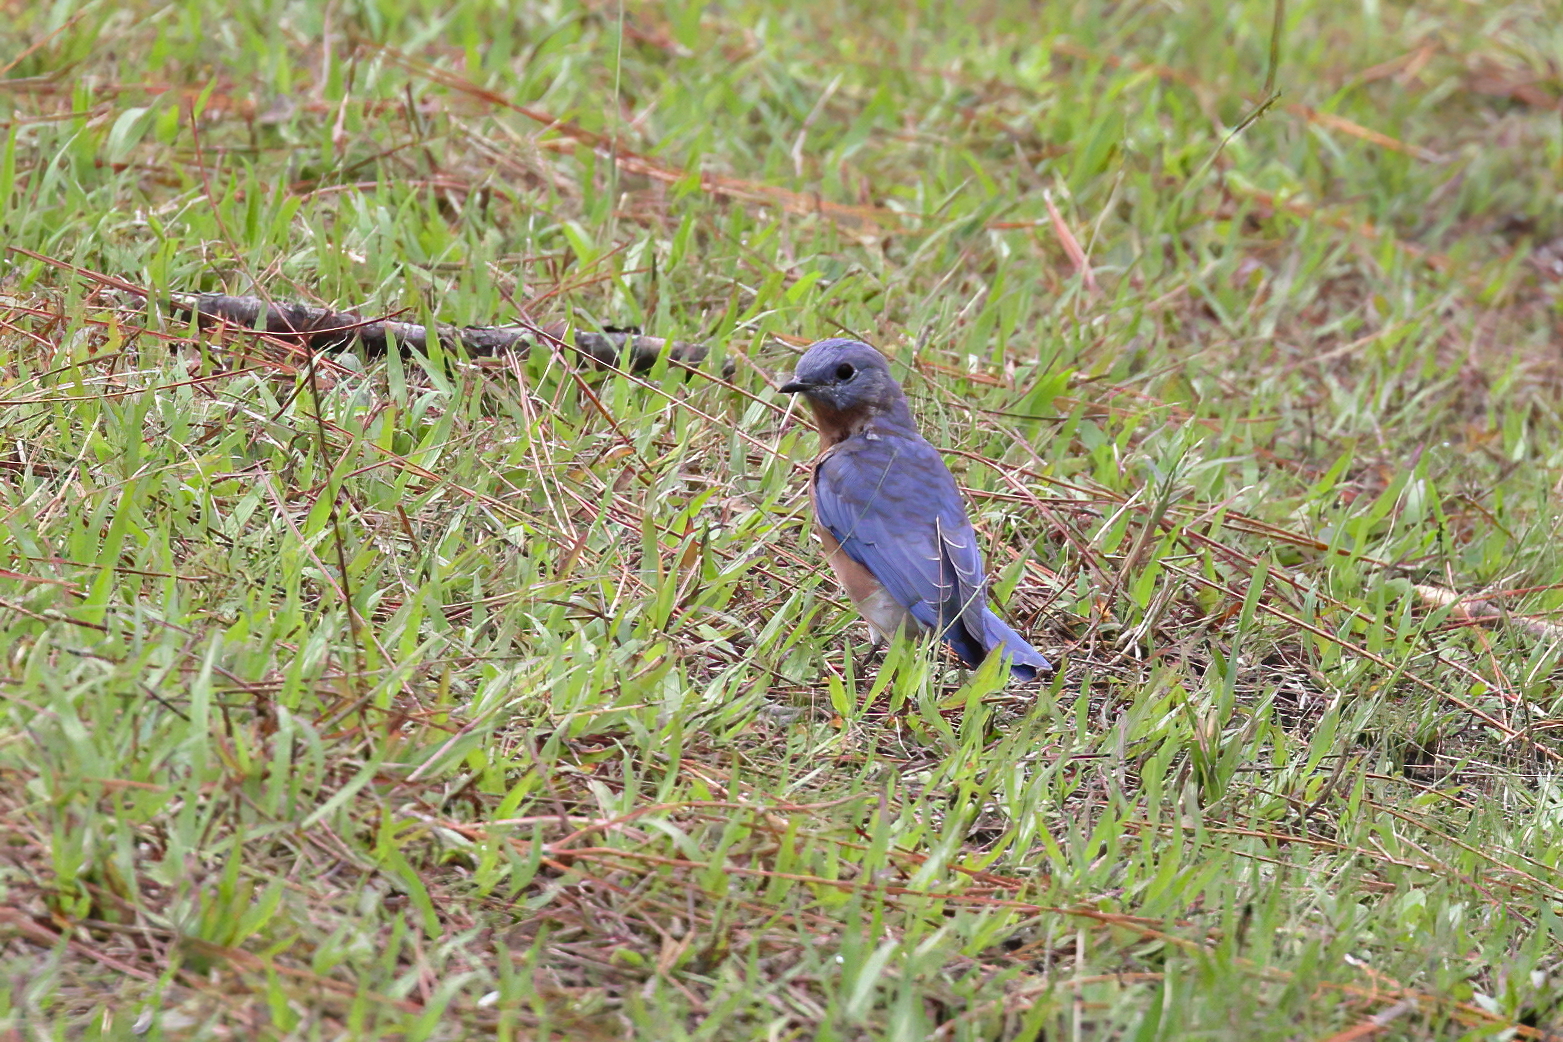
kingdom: Animalia
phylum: Chordata
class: Aves
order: Passeriformes
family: Turdidae
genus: Sialia
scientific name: Sialia sialis
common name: Eastern bluebird
